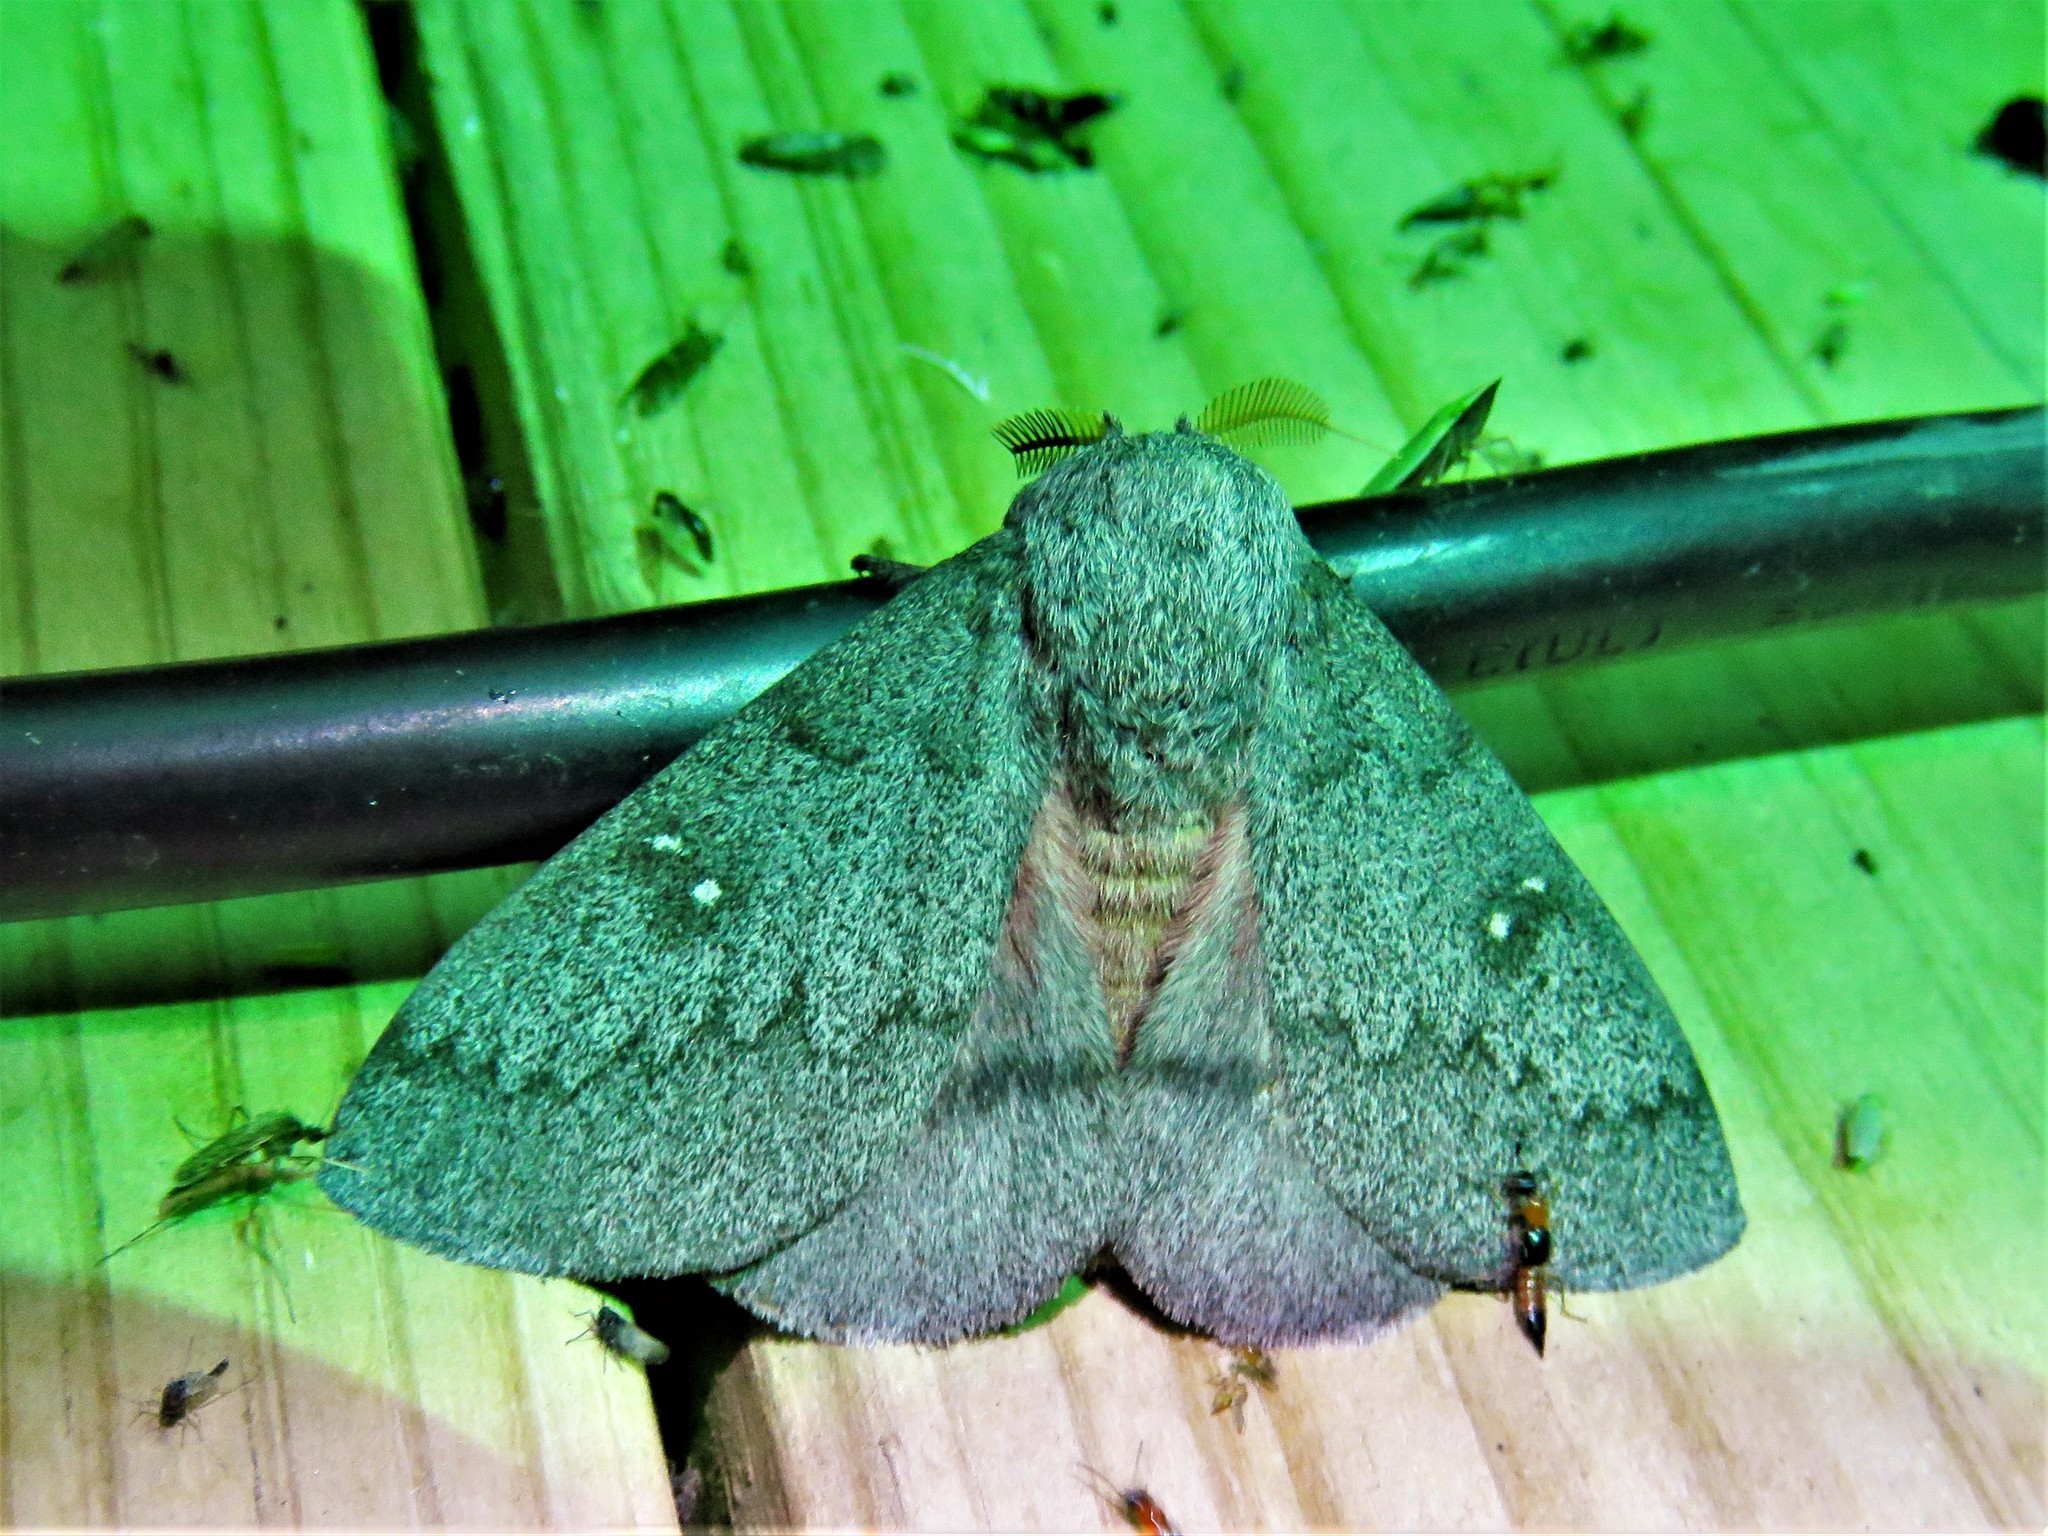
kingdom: Animalia
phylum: Arthropoda
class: Insecta
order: Lepidoptera
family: Saturniidae
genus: Syssphinx
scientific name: Syssphinx heiligbrodti
